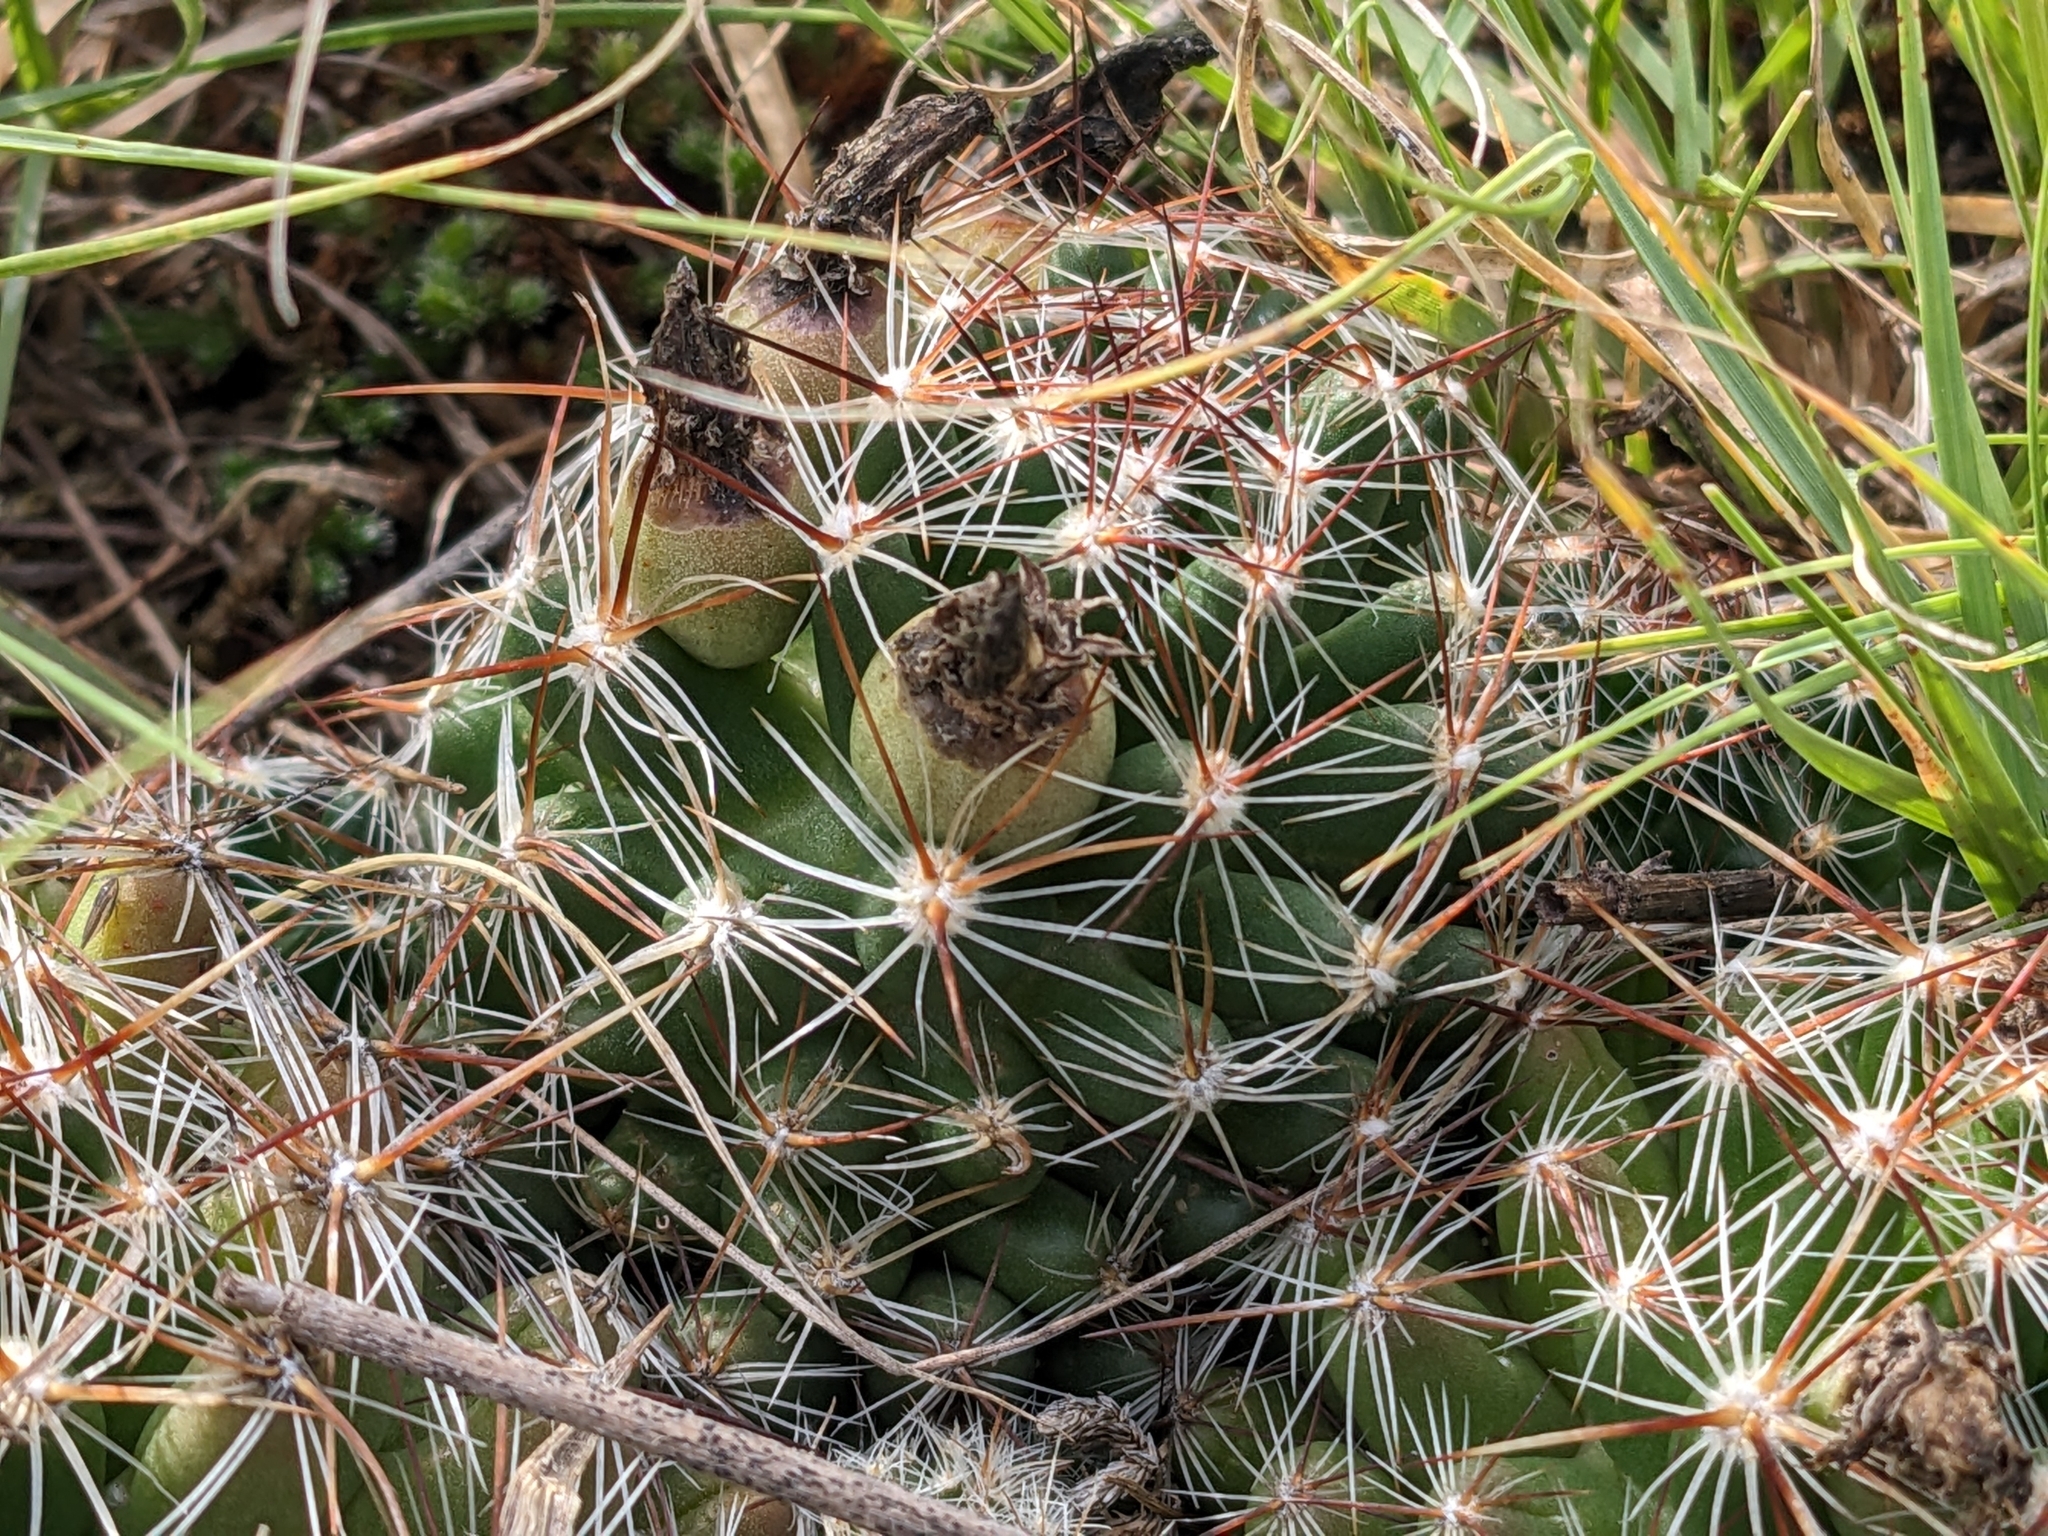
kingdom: Plantae
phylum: Tracheophyta
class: Magnoliopsida
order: Caryophyllales
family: Cactaceae
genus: Pelecyphora
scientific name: Pelecyphora vivipara
